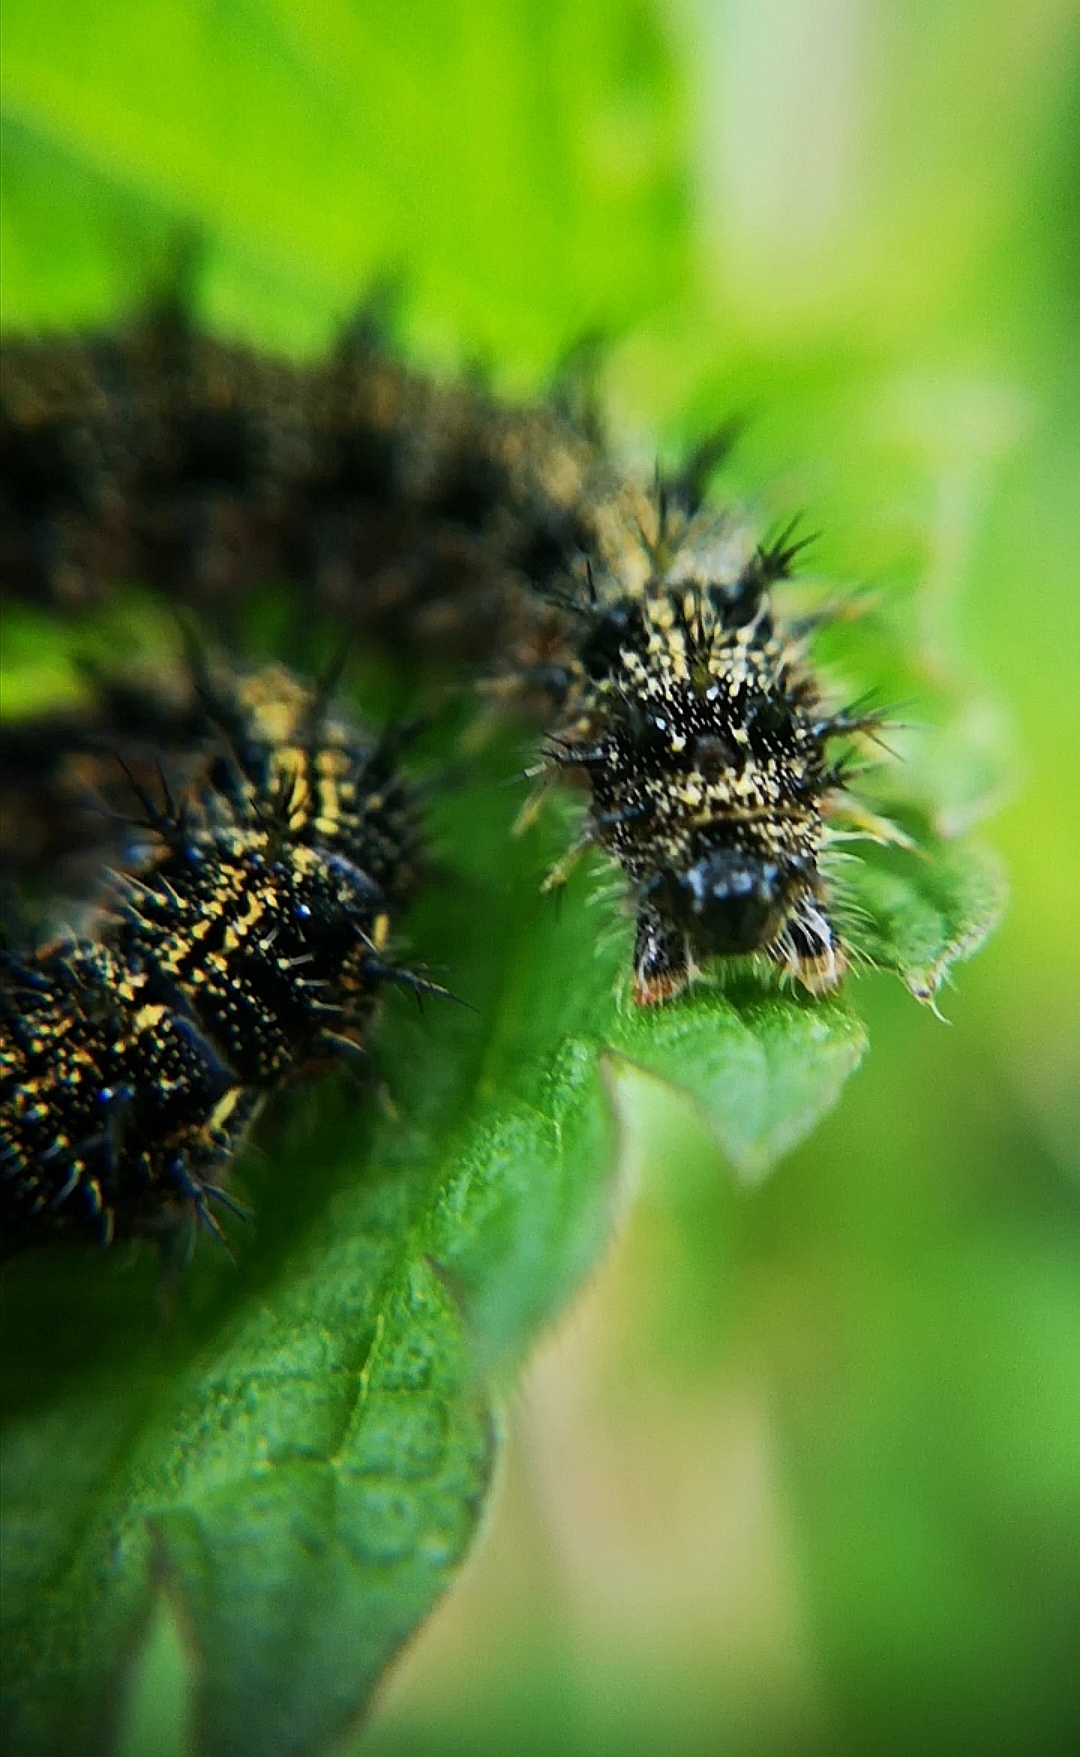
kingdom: Animalia
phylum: Arthropoda
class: Insecta
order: Lepidoptera
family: Nymphalidae
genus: Aglais
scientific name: Aglais urticae
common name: Small tortoiseshell
